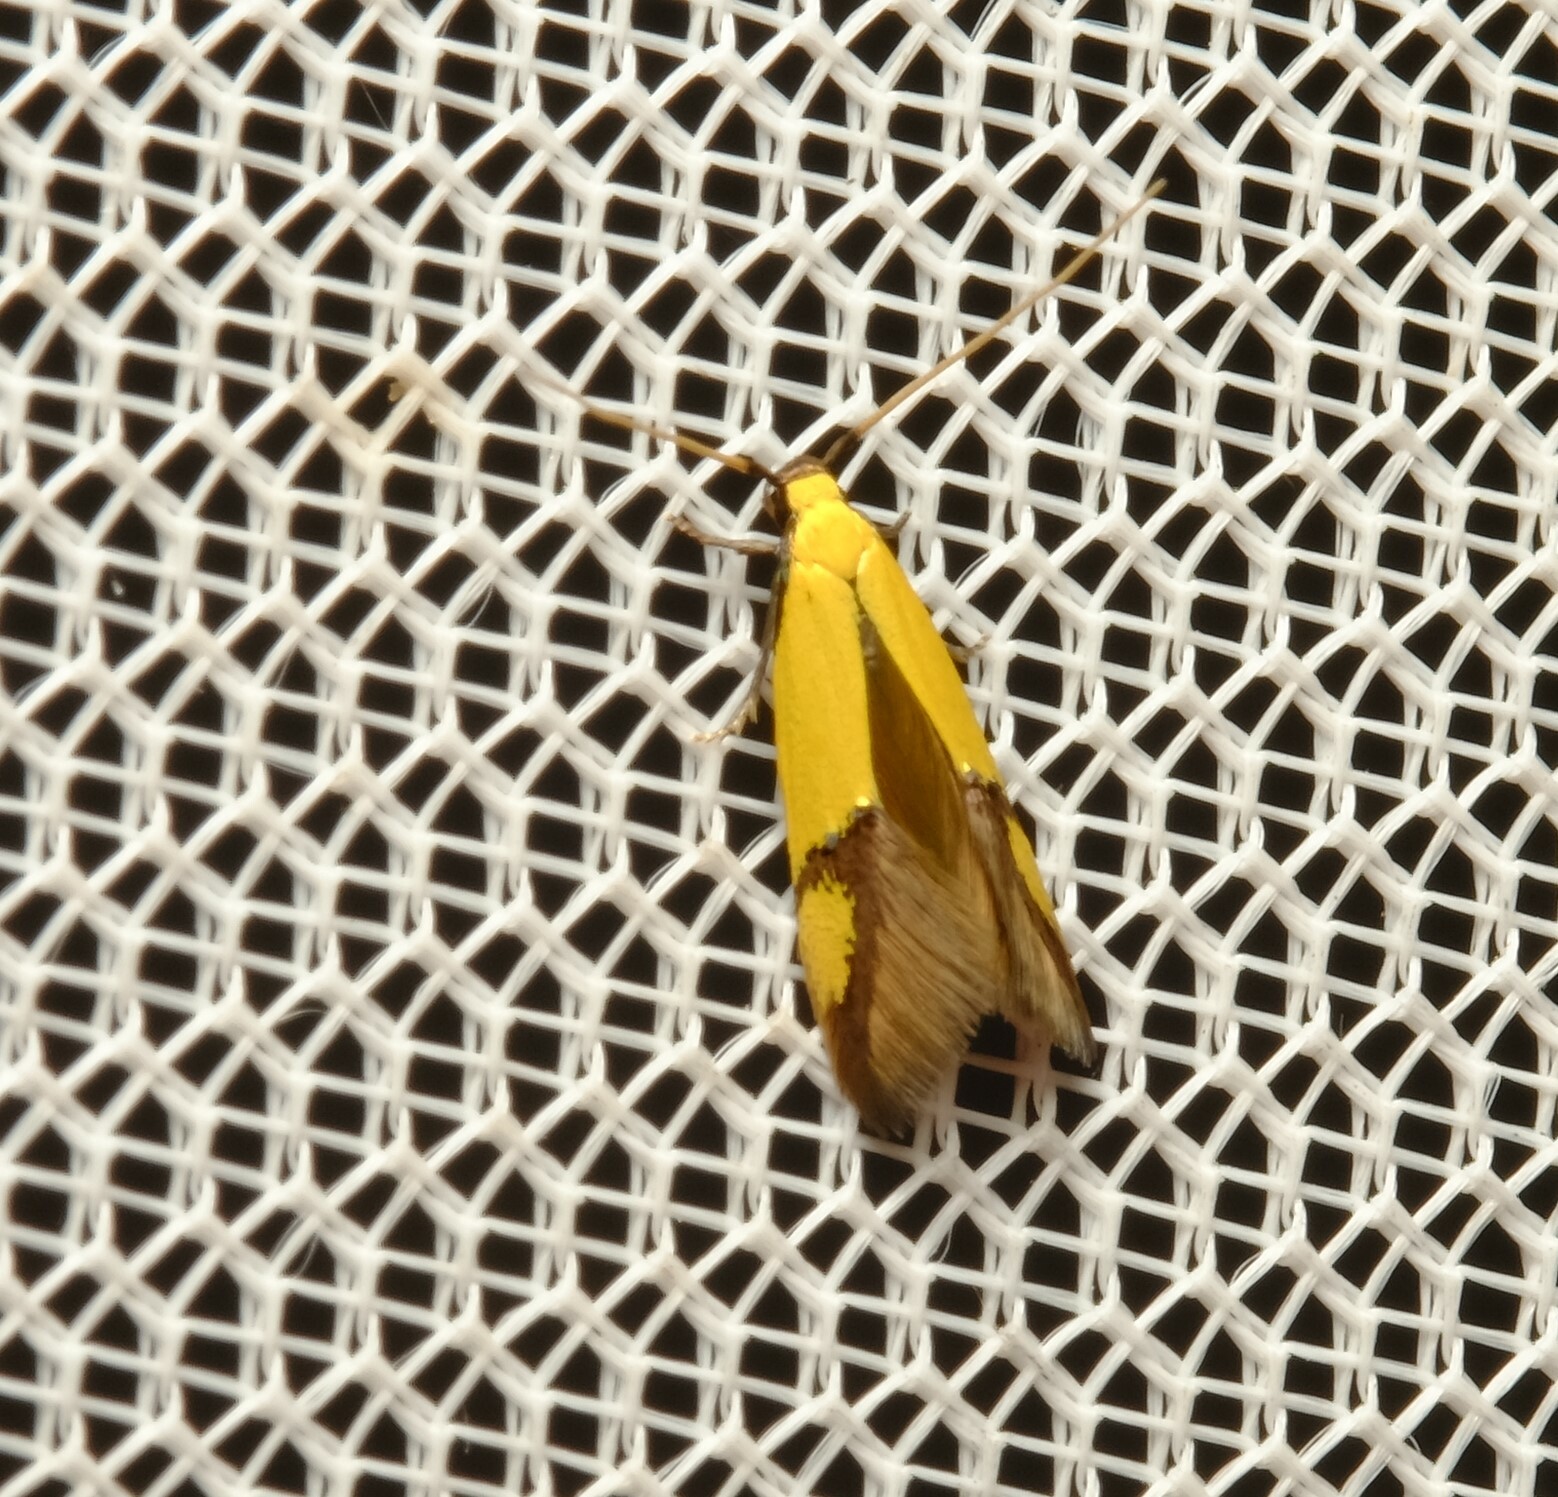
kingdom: Animalia
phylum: Arthropoda
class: Insecta
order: Lepidoptera
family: Tineidae
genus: Opogona
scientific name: Opogona stereodyta
